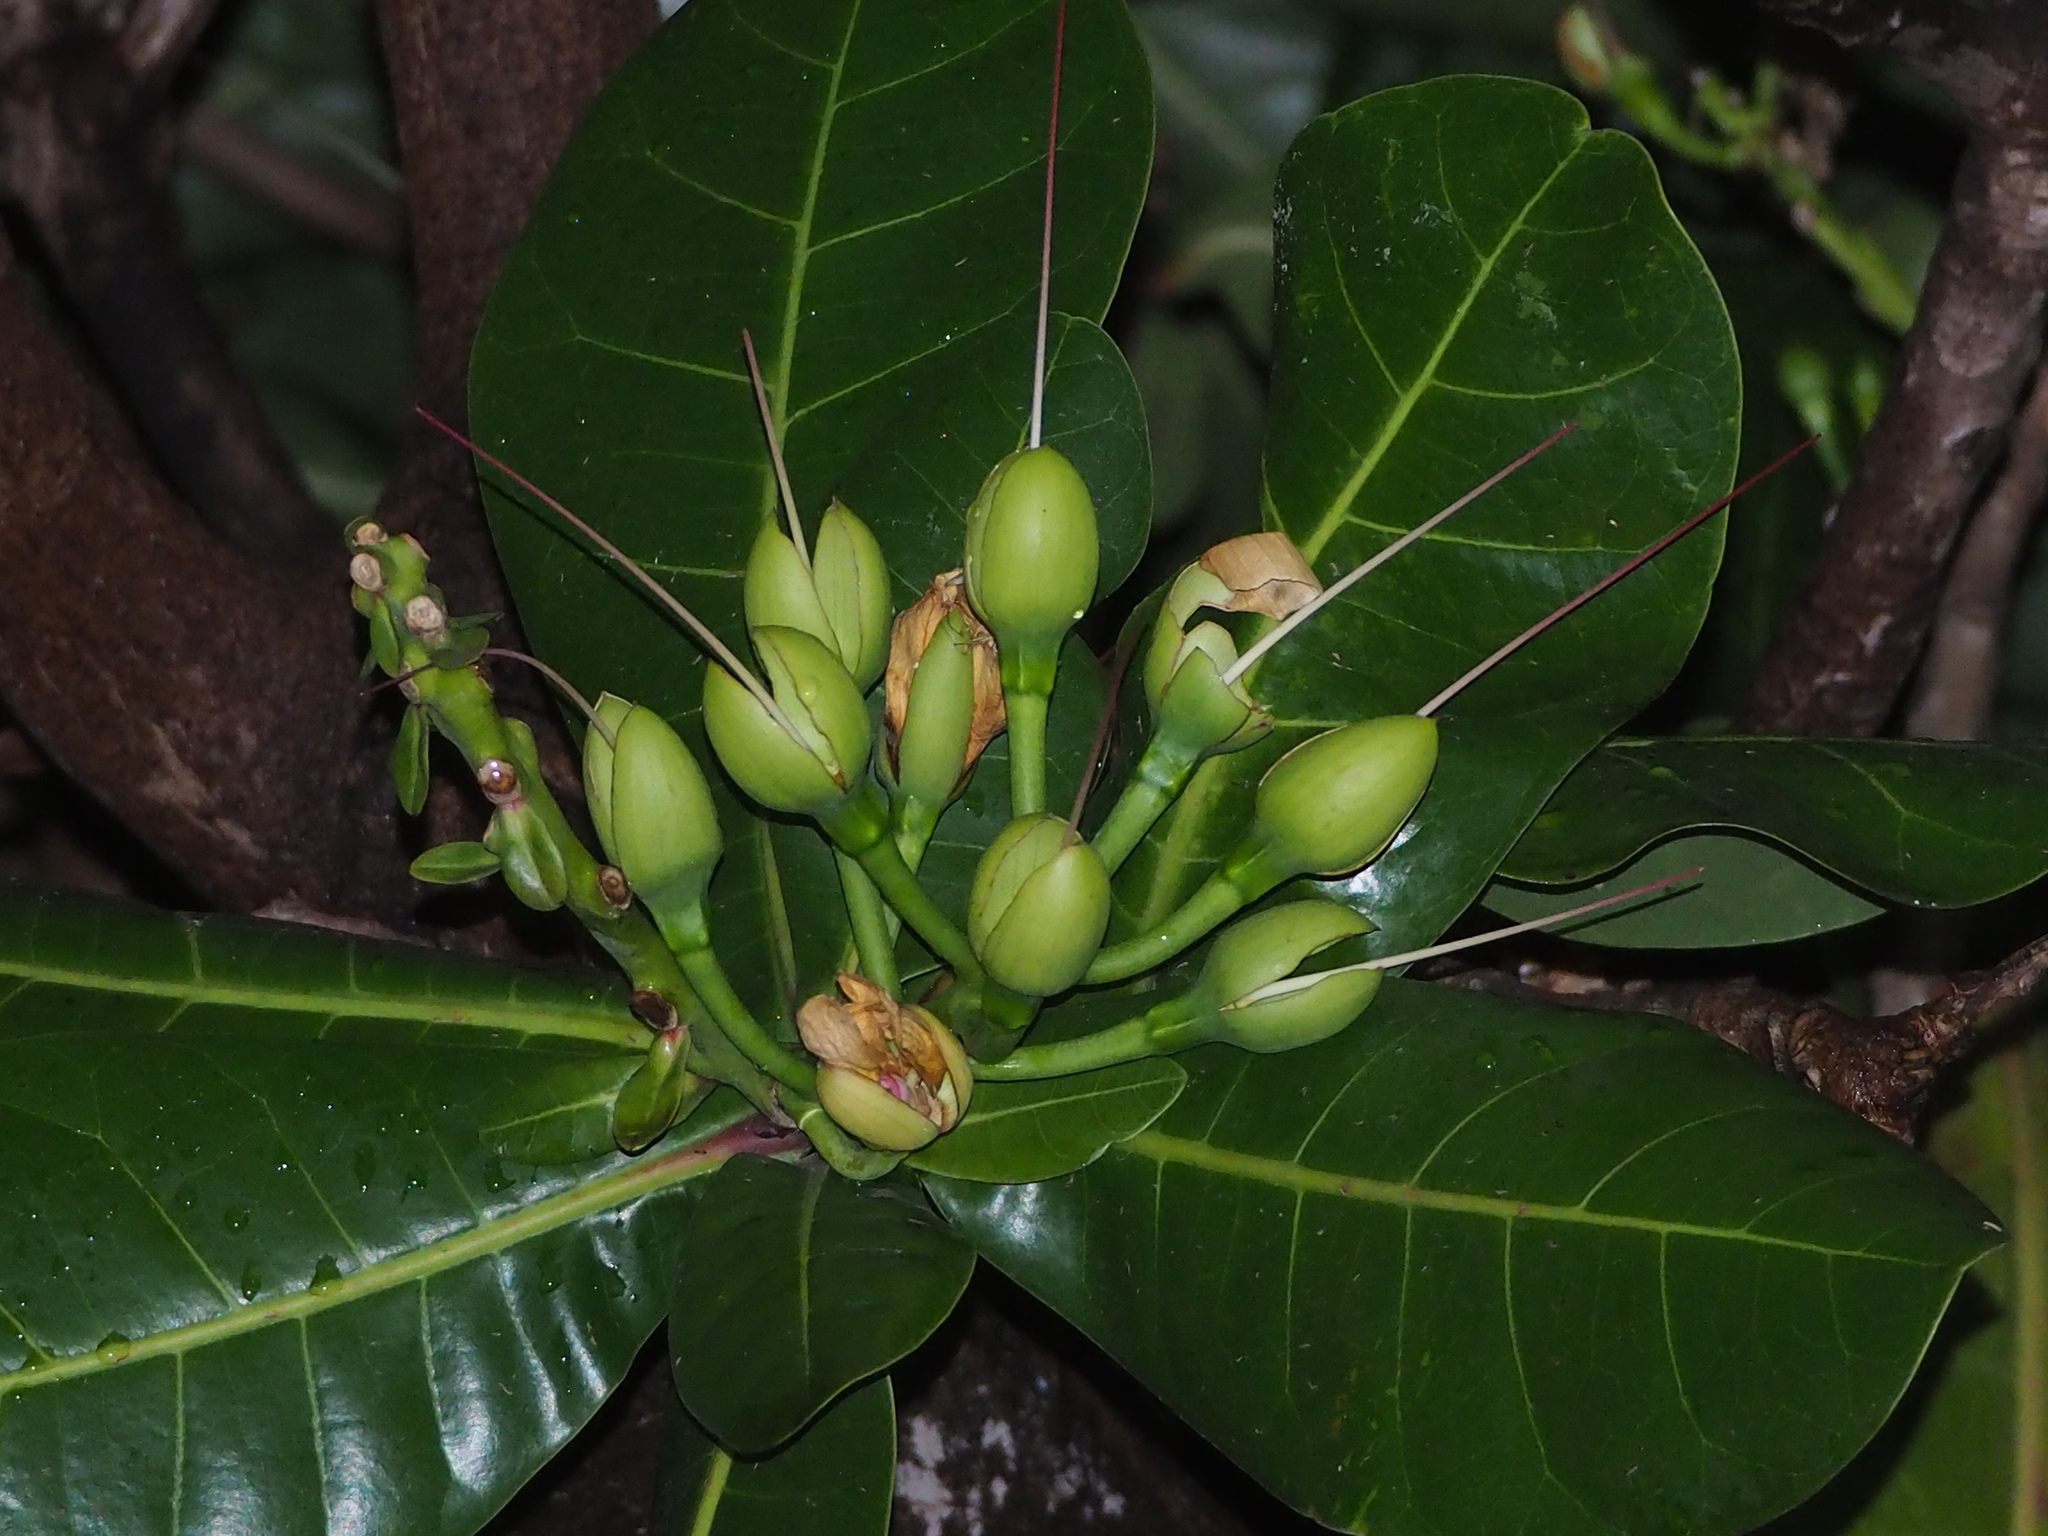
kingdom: Plantae
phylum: Tracheophyta
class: Magnoliopsida
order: Ericales
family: Lecythidaceae
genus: Barringtonia
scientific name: Barringtonia asiatica
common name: Mango-pine
